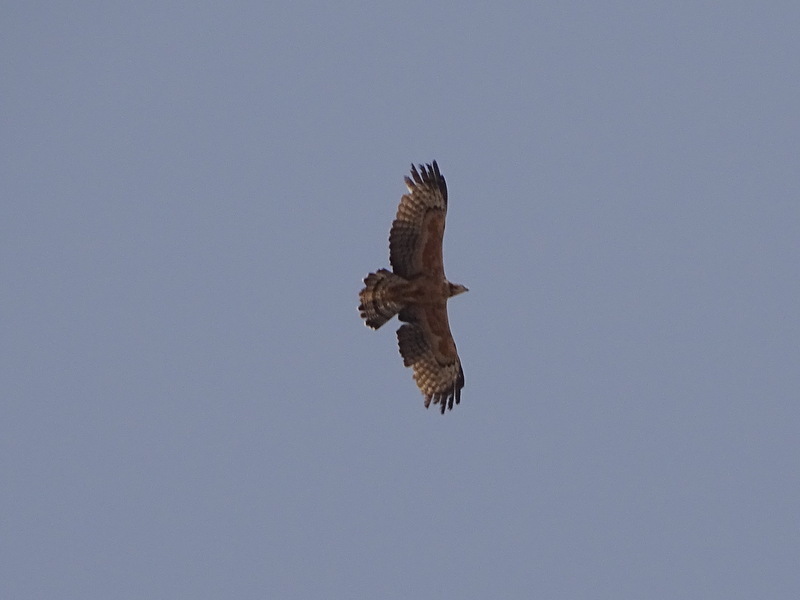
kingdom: Animalia
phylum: Chordata
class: Aves
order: Accipitriformes
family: Accipitridae
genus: Pernis
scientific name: Pernis ptilorhynchus
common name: Crested honey buzzard
